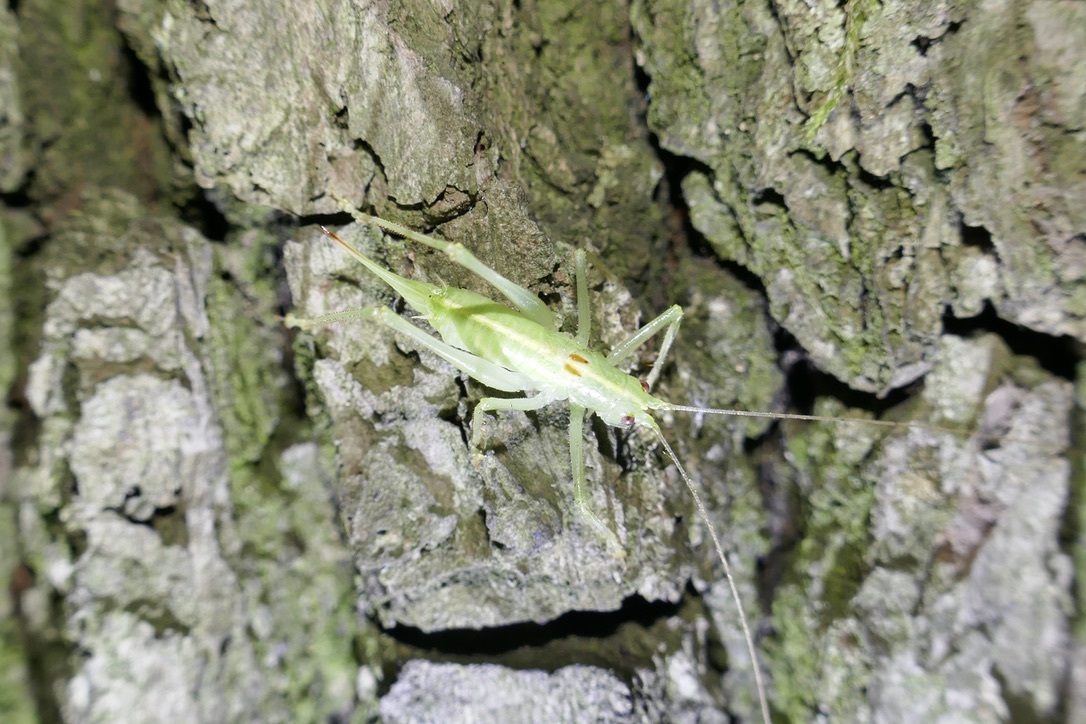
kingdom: Animalia
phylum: Arthropoda
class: Insecta
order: Orthoptera
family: Tettigoniidae
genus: Meconema
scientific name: Meconema meridionale
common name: Southern oak bush-cricket
